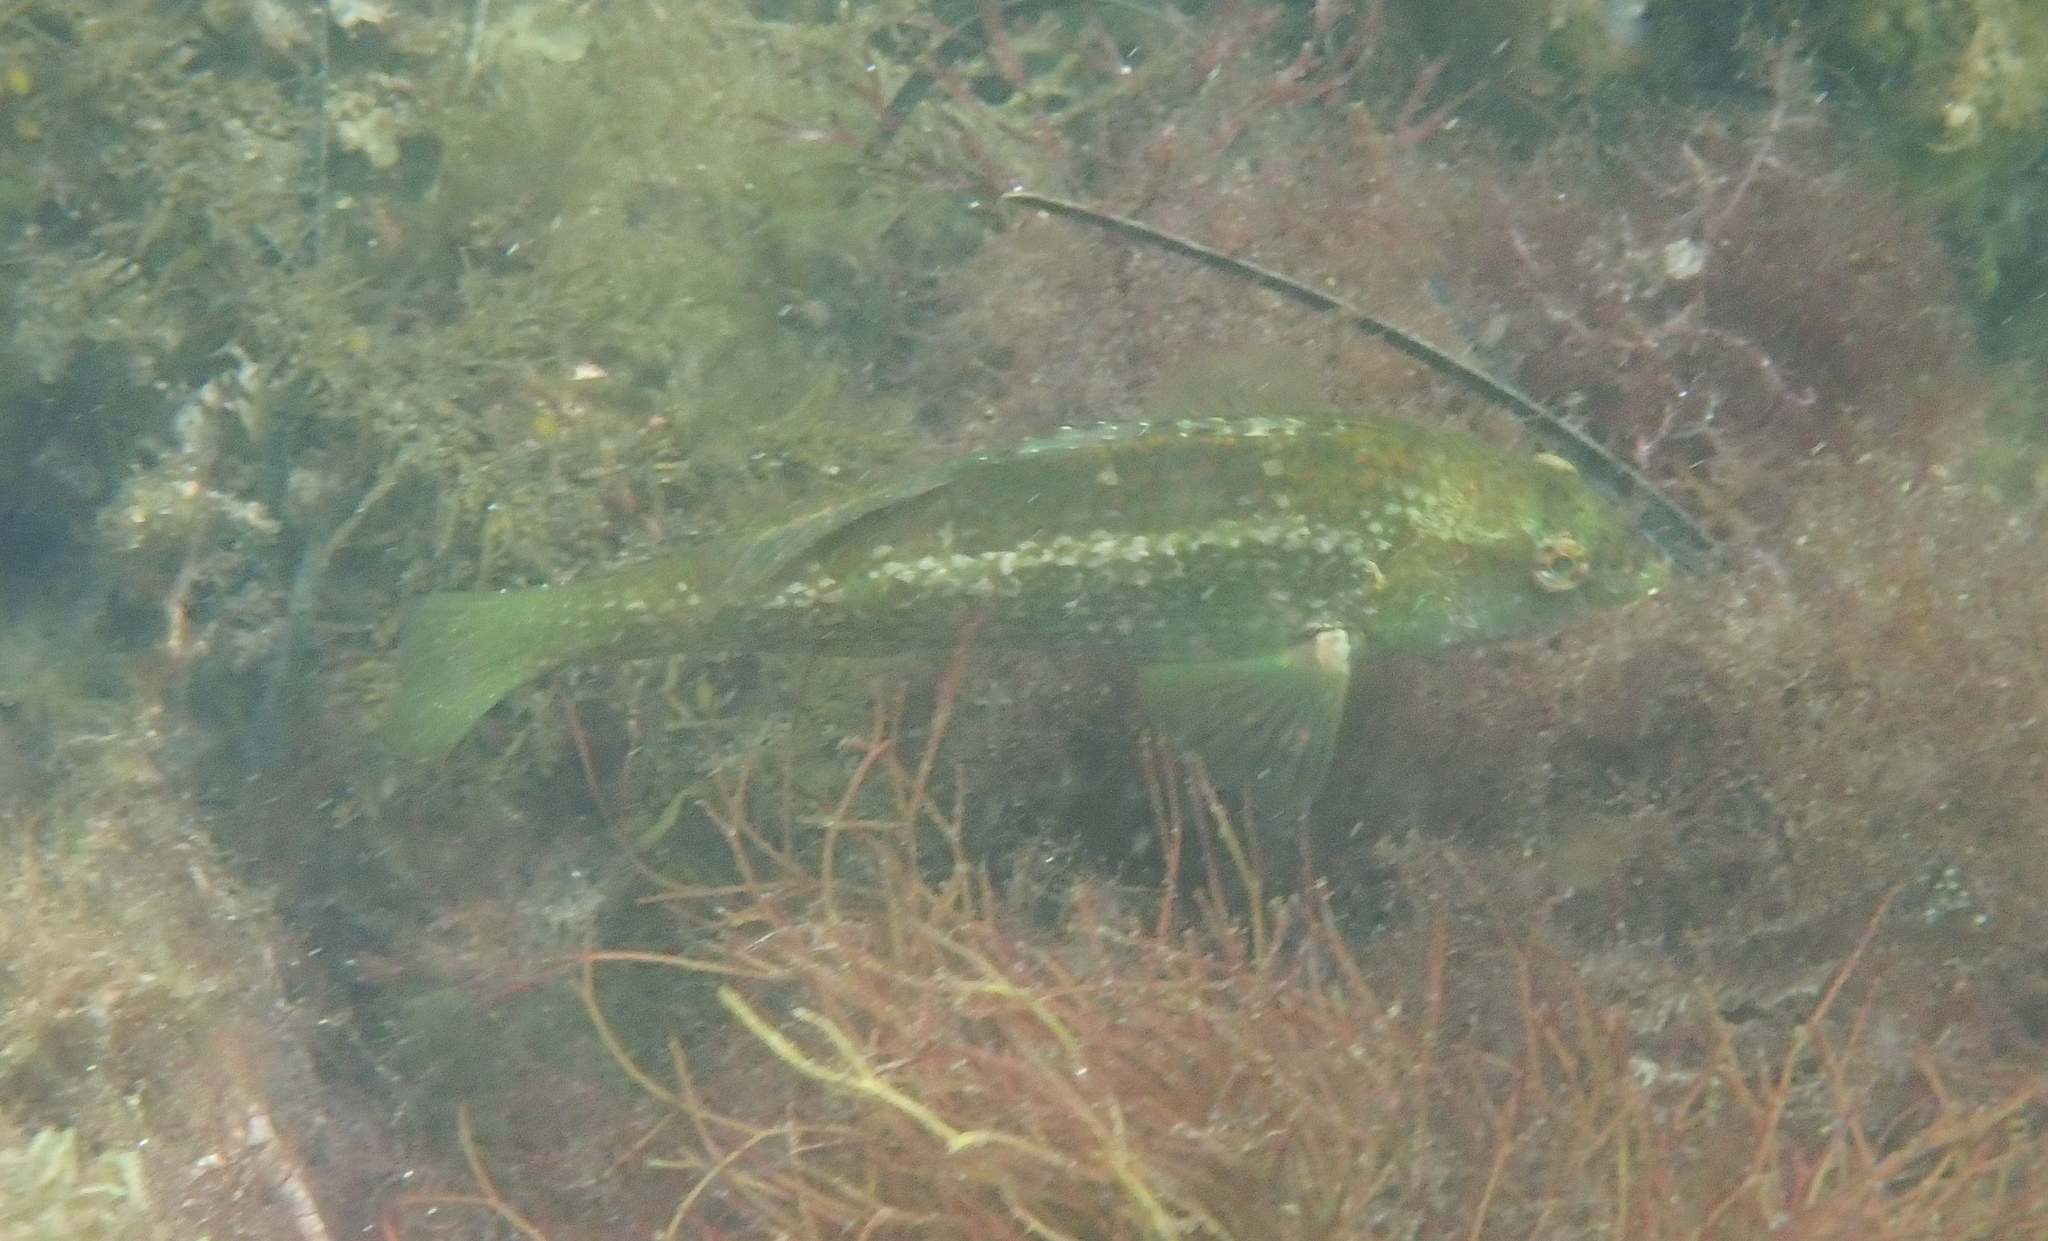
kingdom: Animalia
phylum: Chordata
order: Perciformes
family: Labridae
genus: Notolabrus
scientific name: Notolabrus parilus
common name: Brown spotted wrasse
